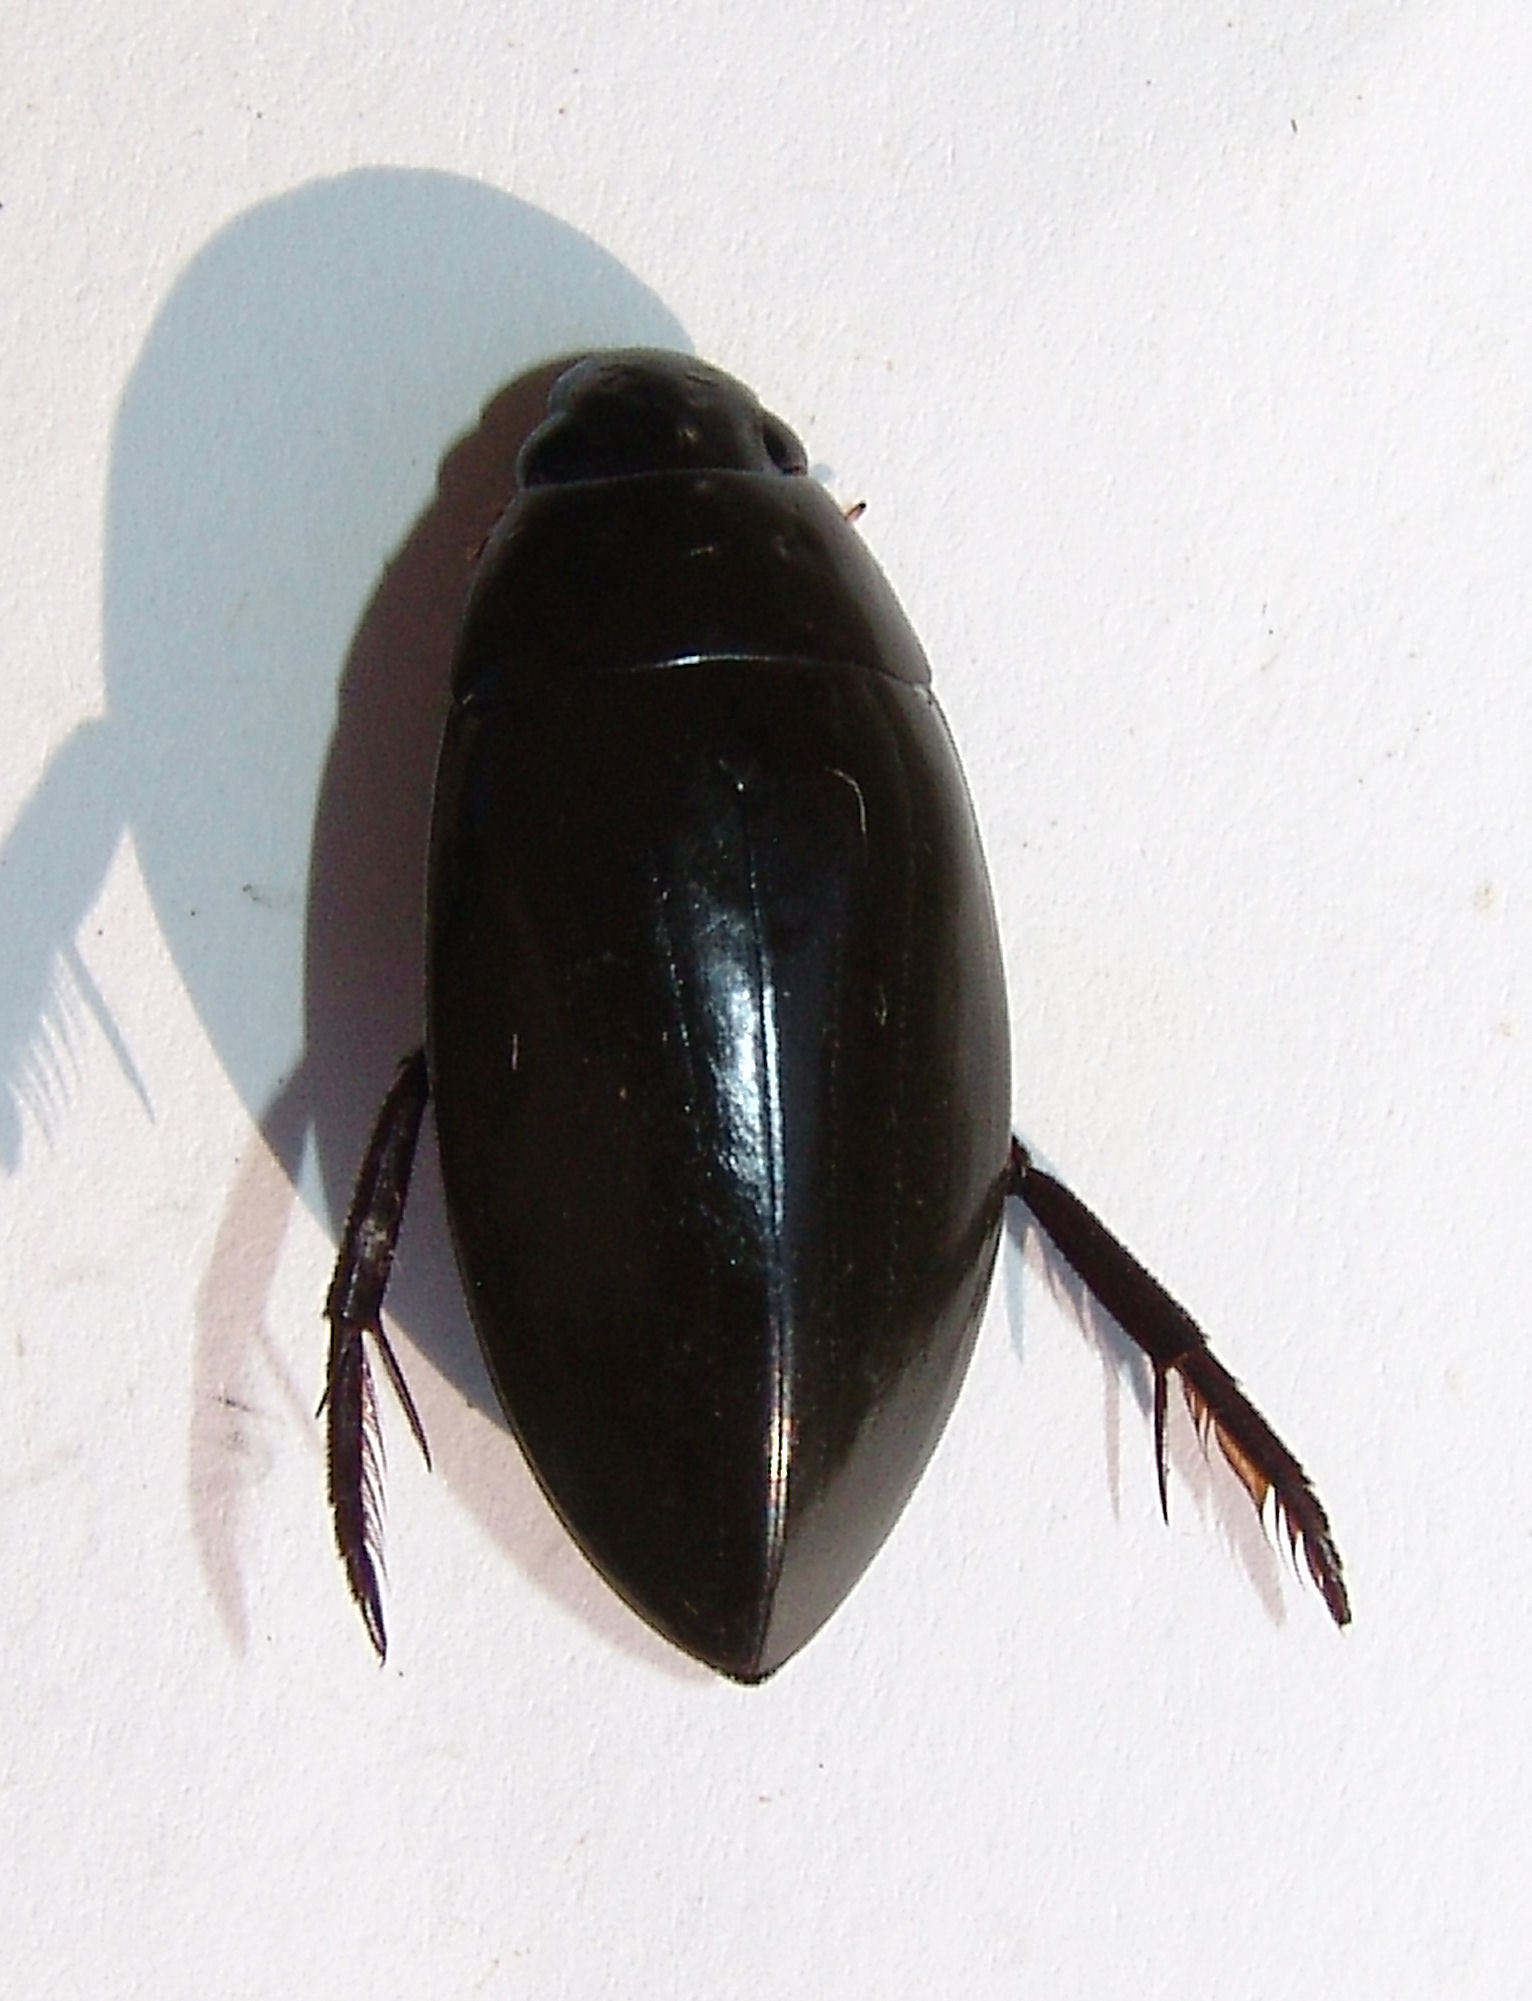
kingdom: Animalia
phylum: Arthropoda
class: Insecta
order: Coleoptera
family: Hydrophilidae
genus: Hydrophilus
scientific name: Hydrophilus triangularis
